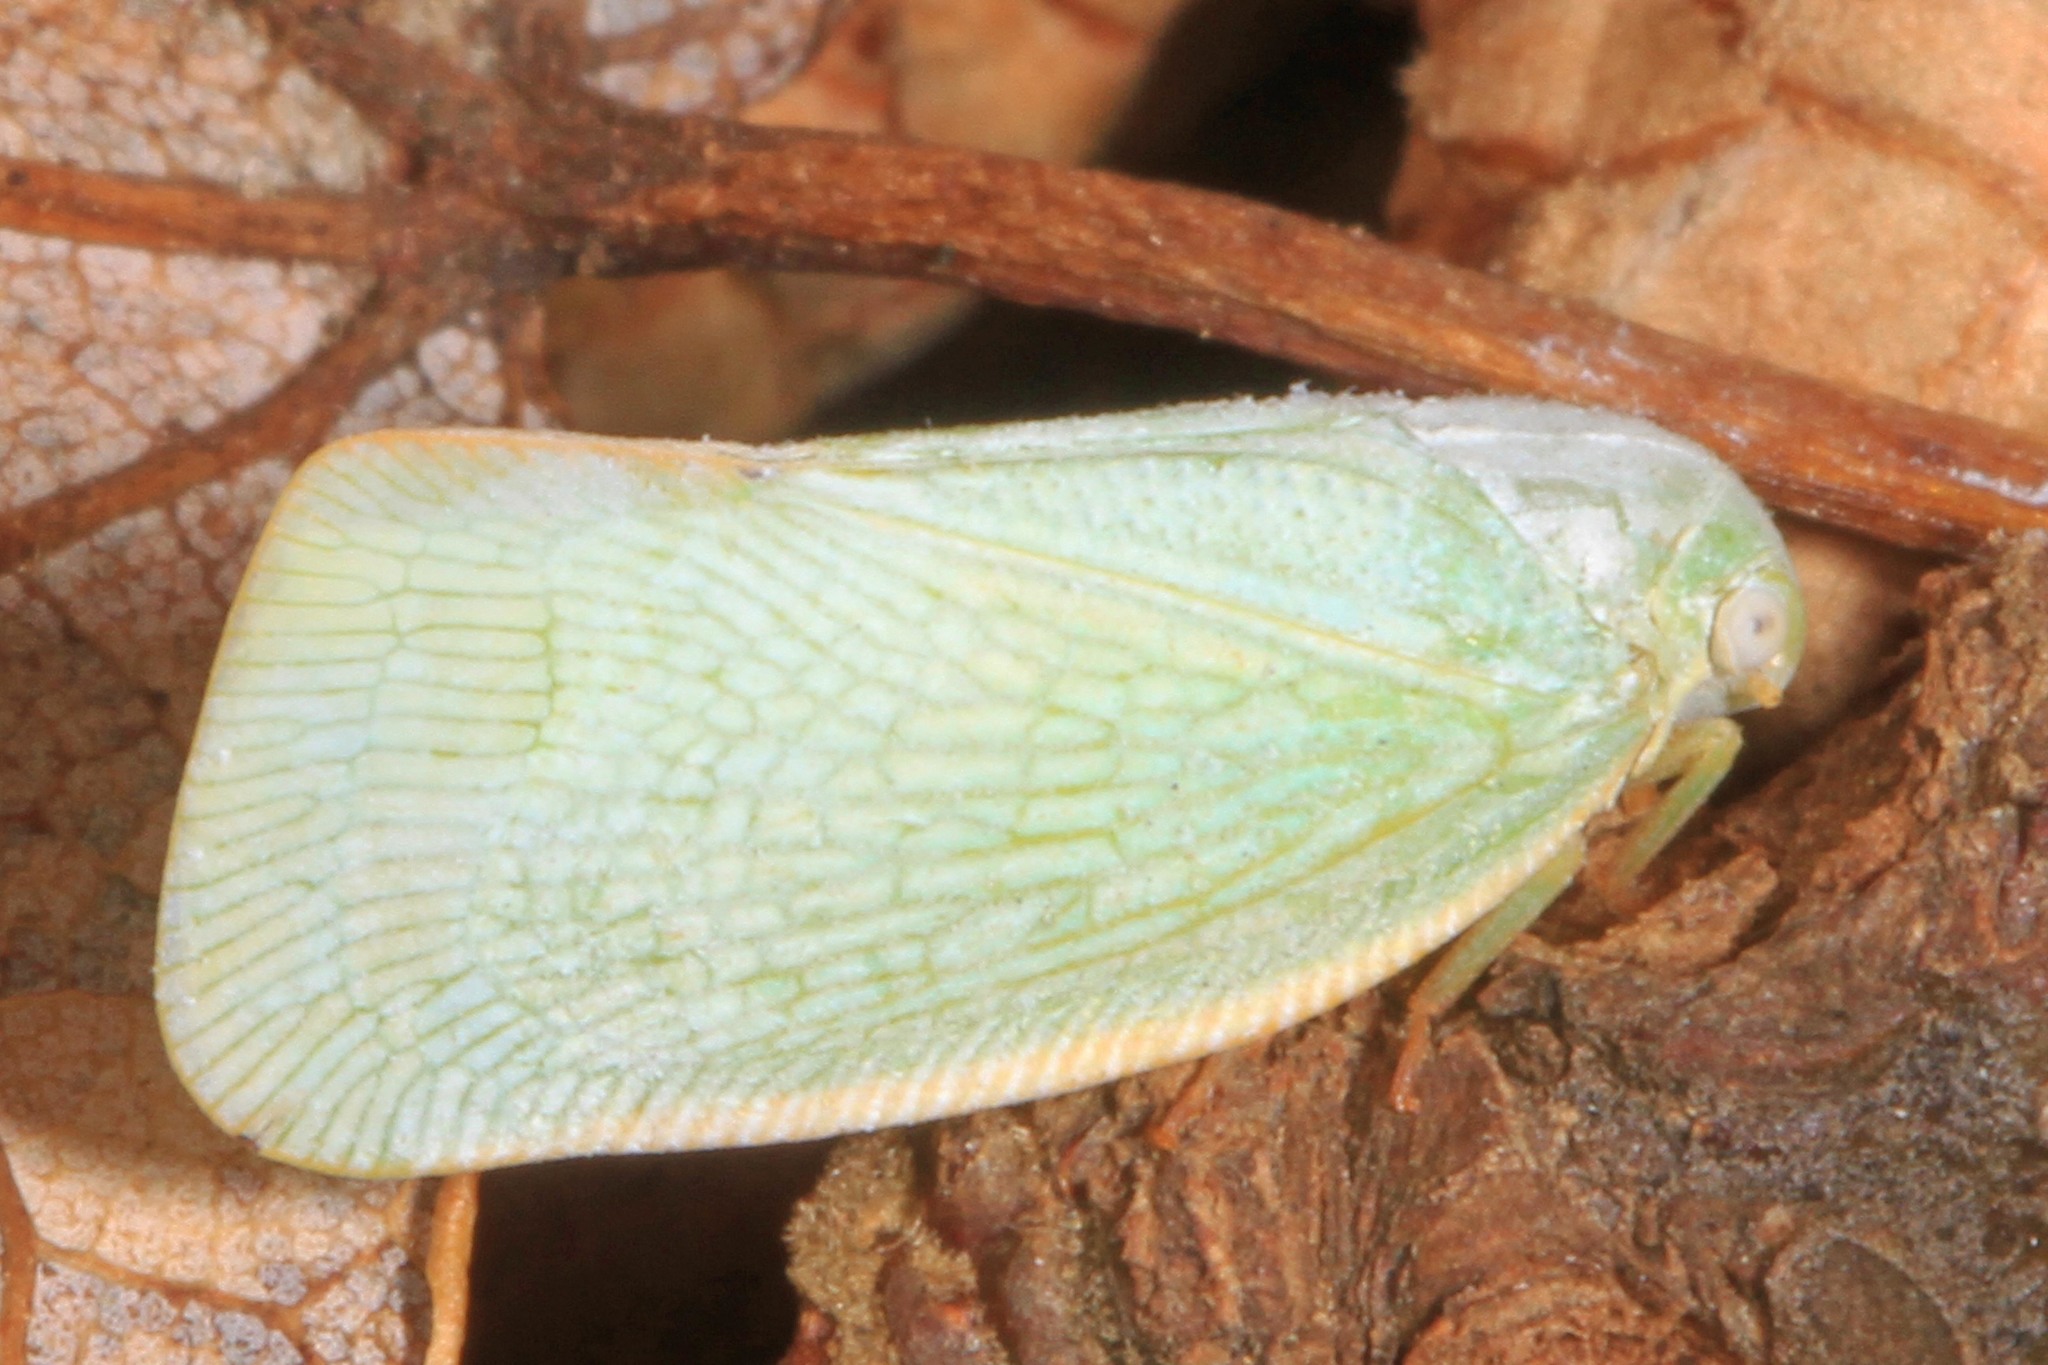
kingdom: Animalia
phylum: Arthropoda
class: Insecta
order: Hemiptera
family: Flatidae
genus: Flatormenis
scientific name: Flatormenis proxima
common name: Northern flatid planthopper
